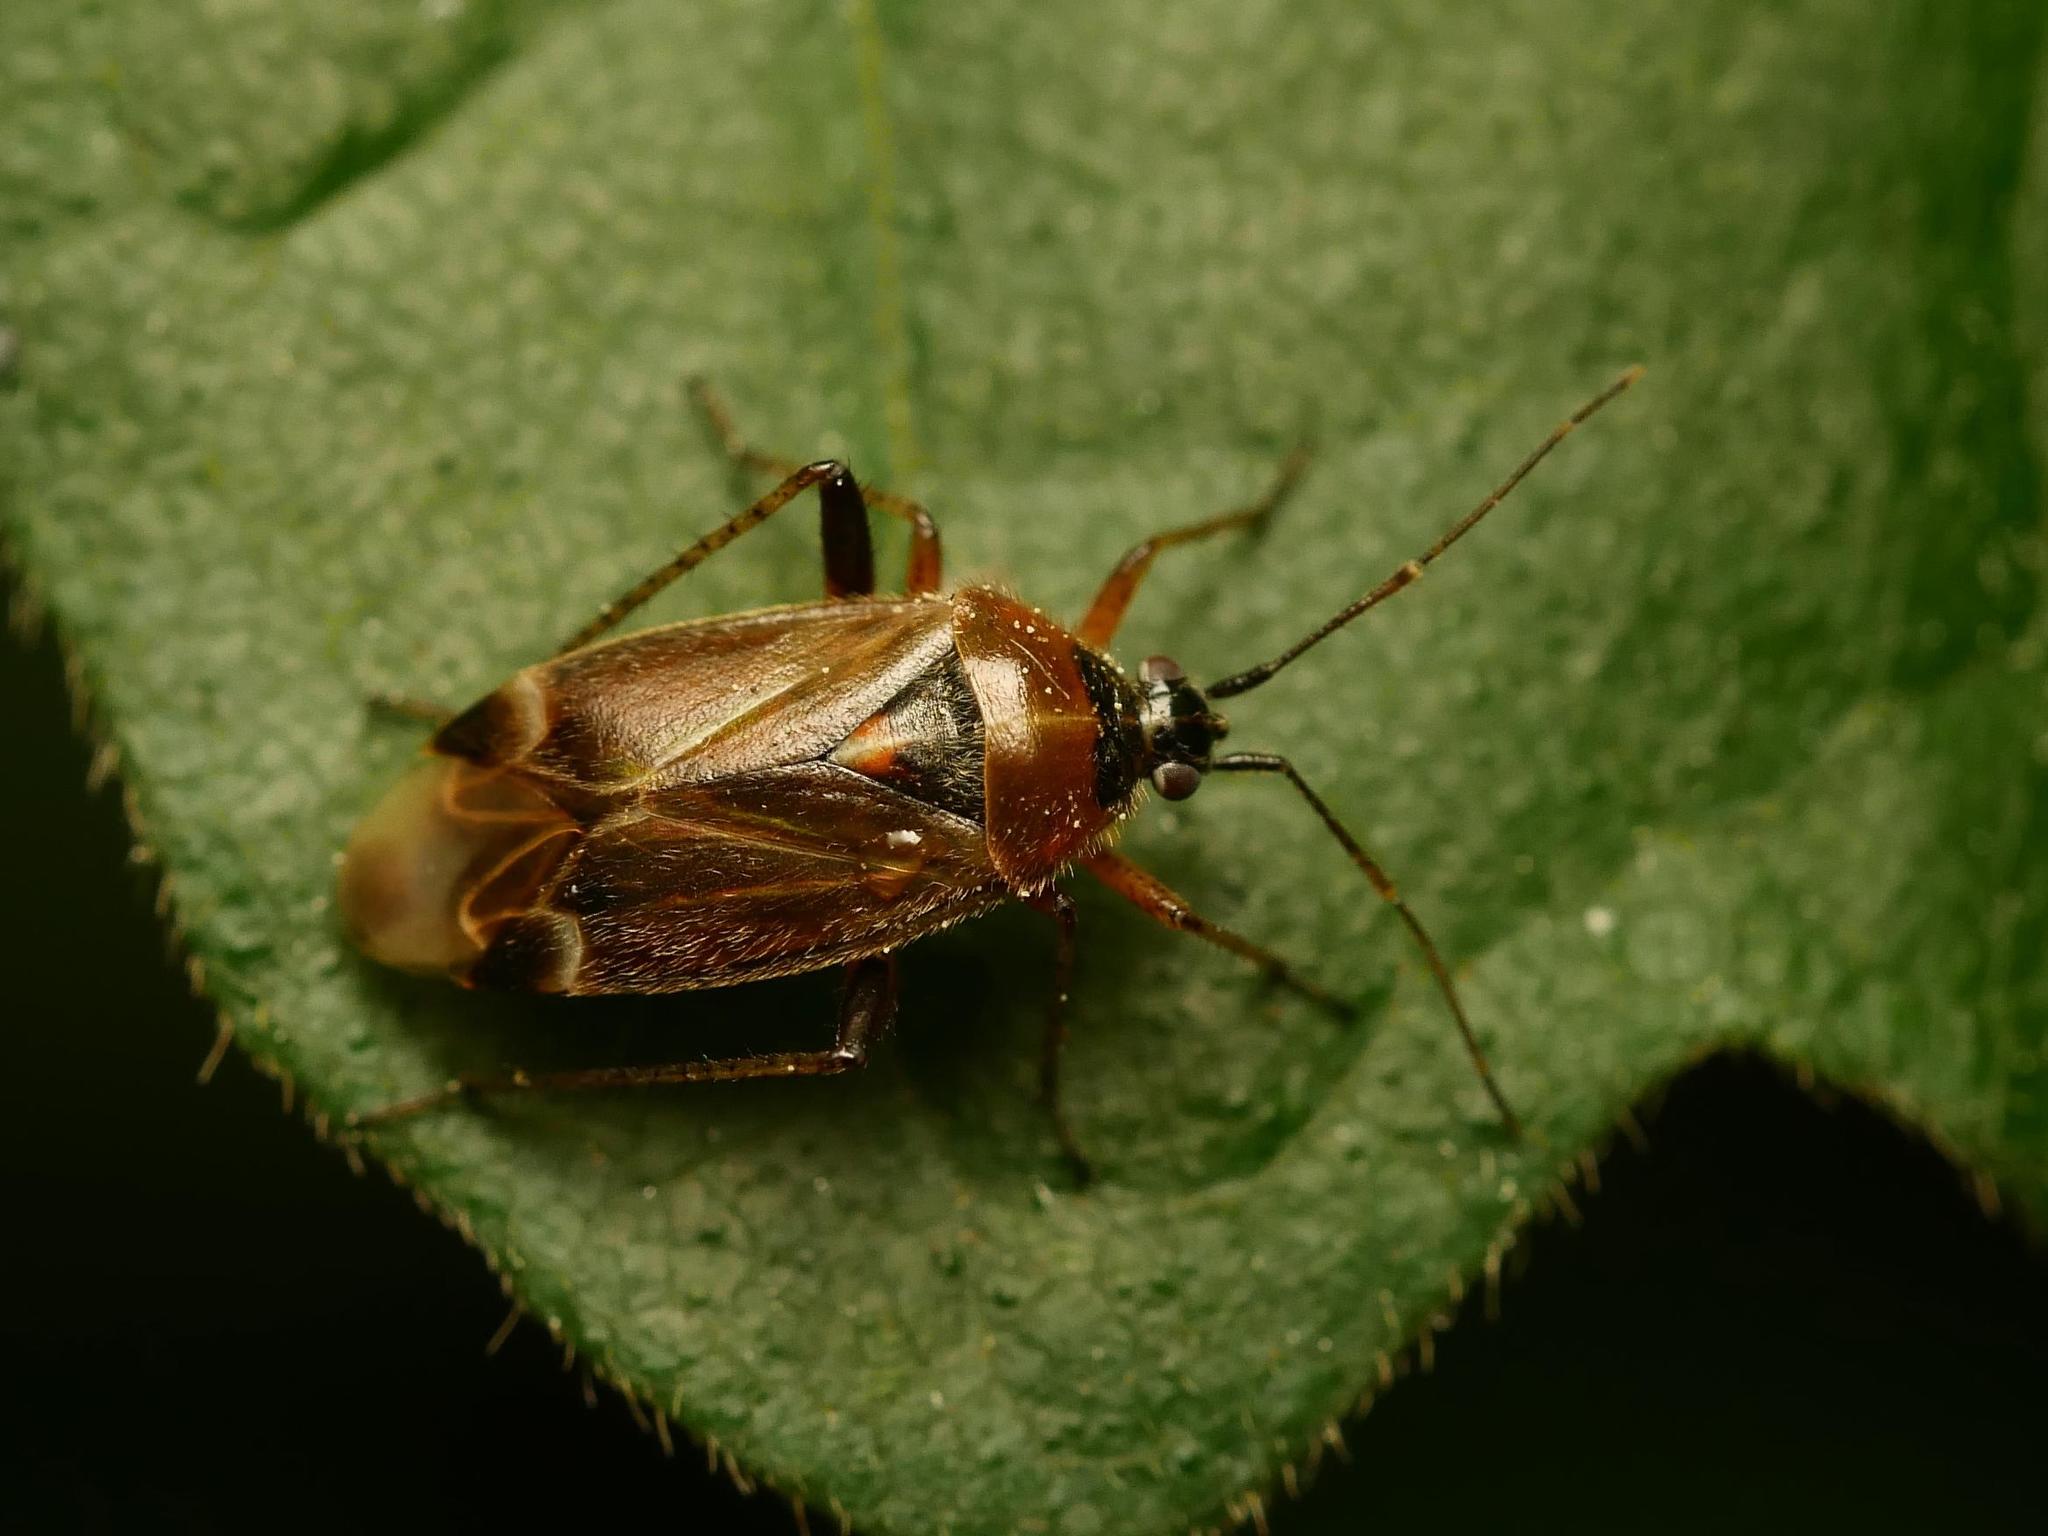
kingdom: Animalia
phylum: Arthropoda
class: Insecta
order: Hemiptera
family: Miridae
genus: Harpocera
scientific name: Harpocera thoracica
